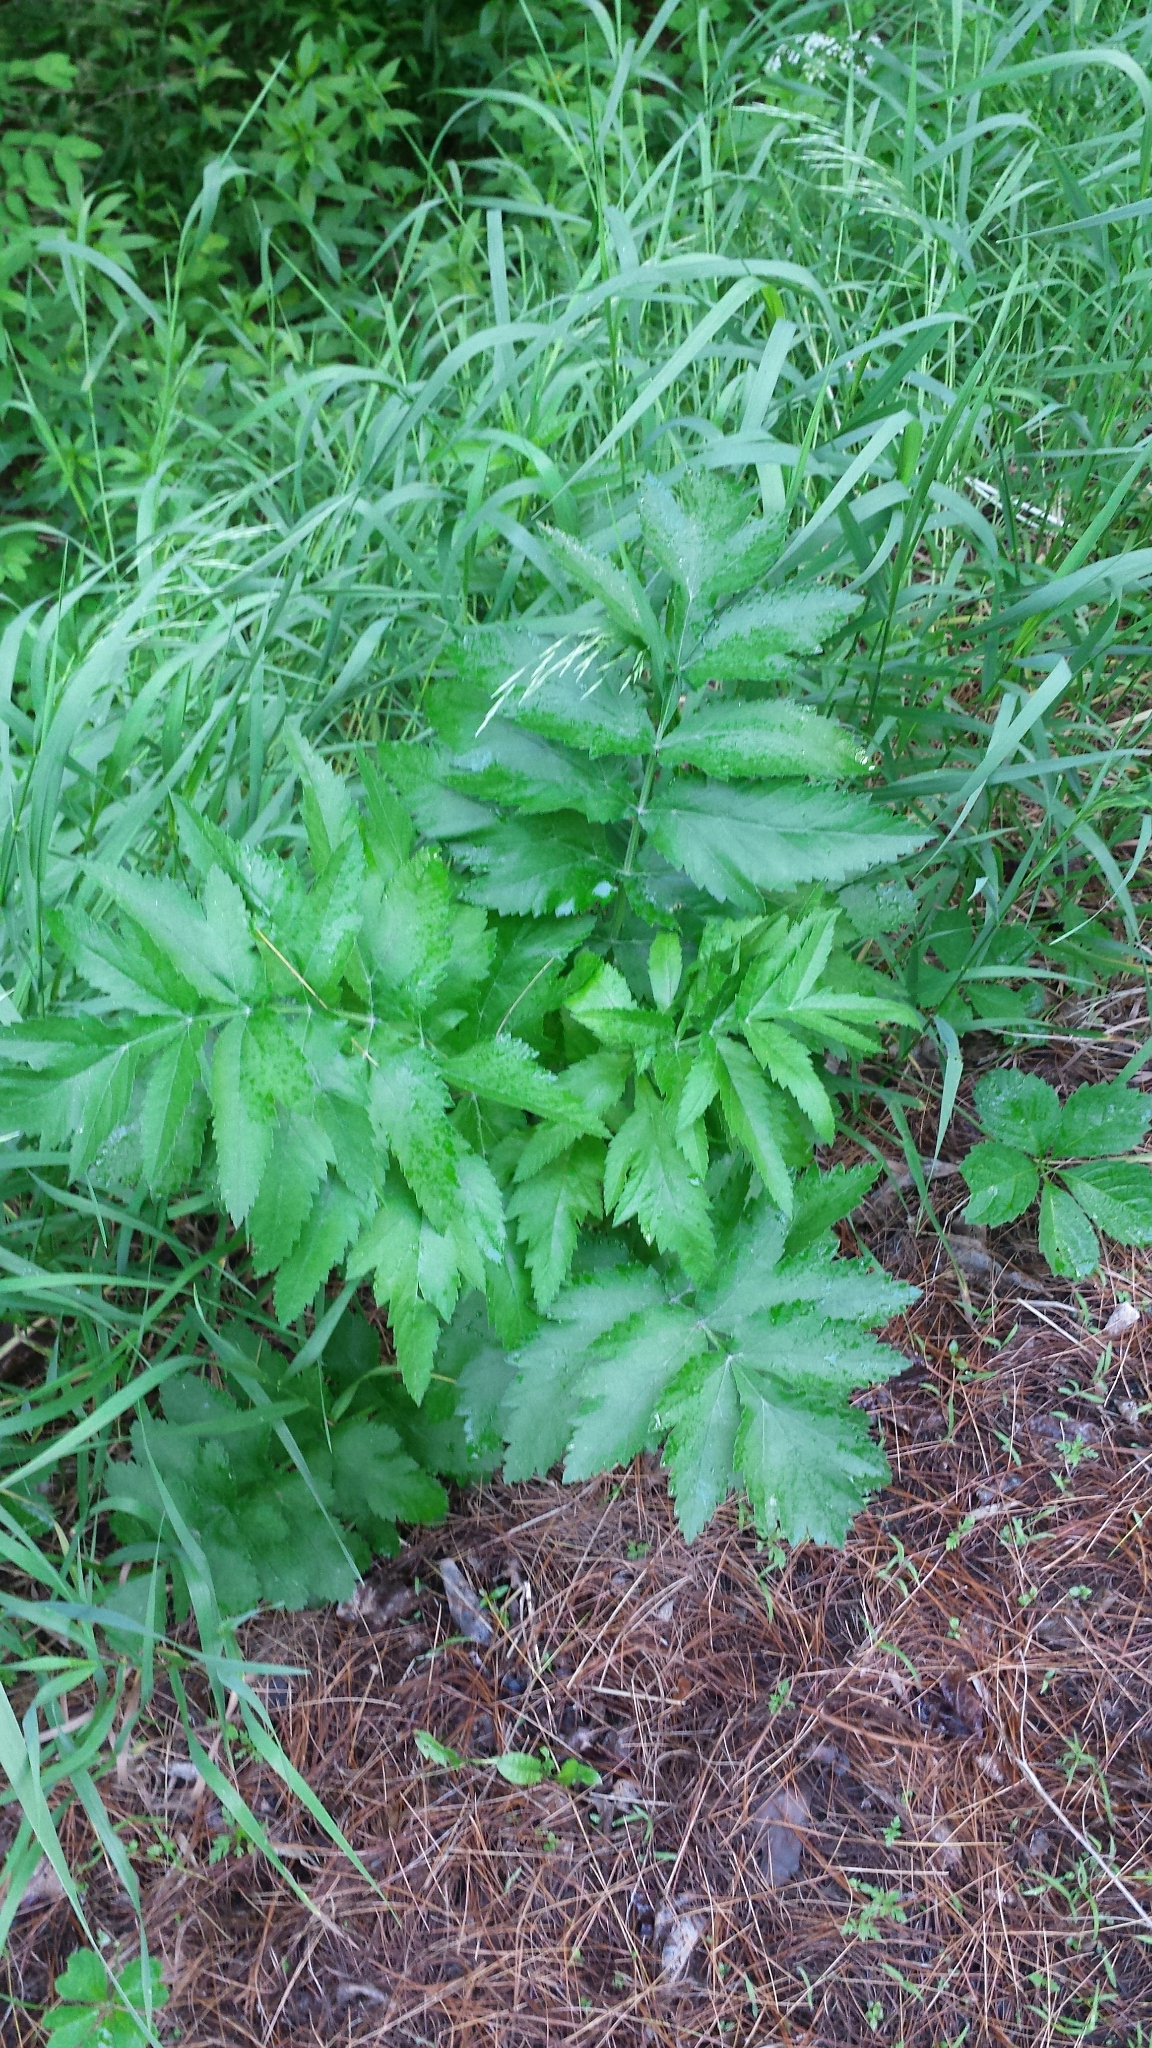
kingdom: Plantae
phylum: Tracheophyta
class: Magnoliopsida
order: Apiales
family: Apiaceae
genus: Pastinaca
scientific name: Pastinaca sativa
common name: Wild parsnip
